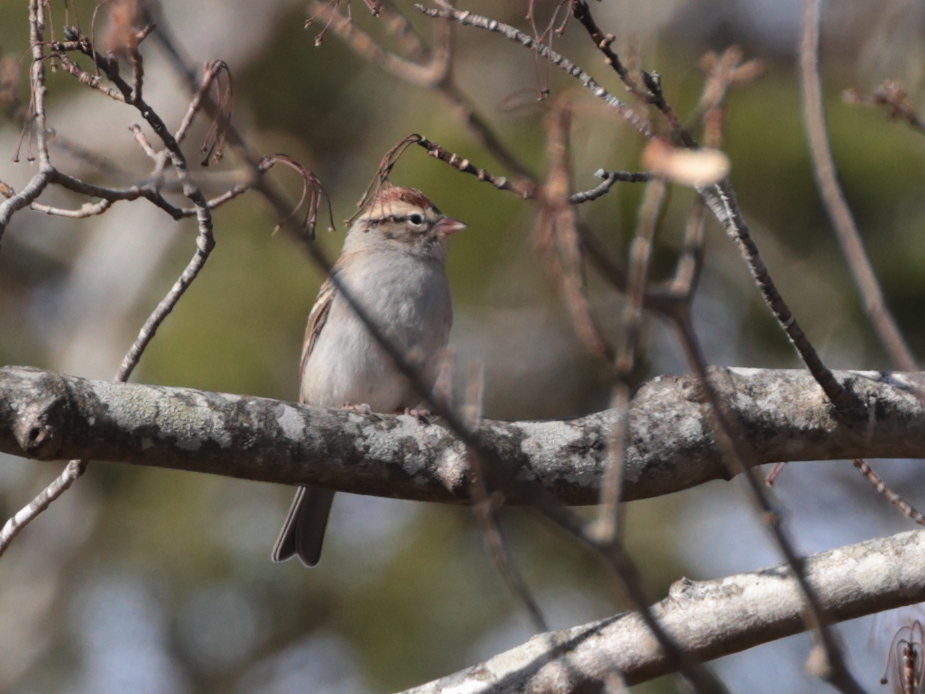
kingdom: Animalia
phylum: Chordata
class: Aves
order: Passeriformes
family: Passerellidae
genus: Spizella
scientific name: Spizella passerina
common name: Chipping sparrow
